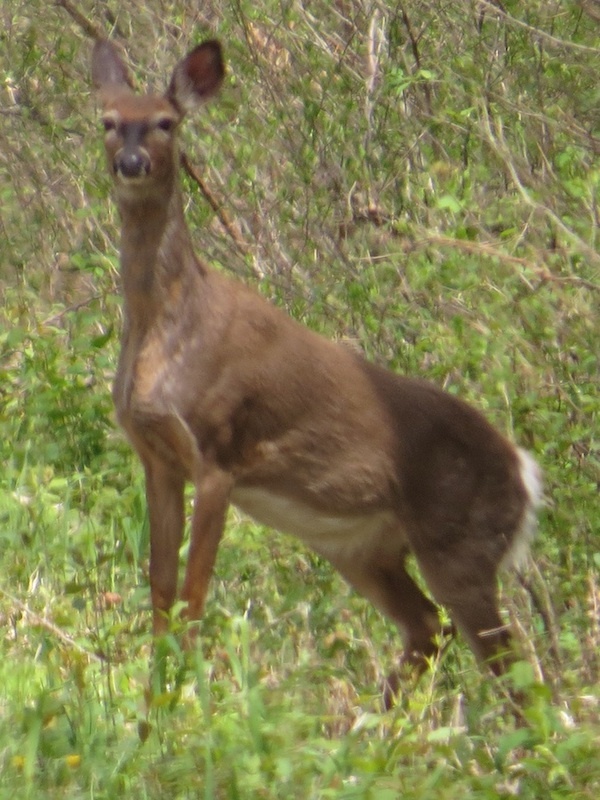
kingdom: Animalia
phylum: Chordata
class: Mammalia
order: Artiodactyla
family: Cervidae
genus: Odocoileus
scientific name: Odocoileus virginianus
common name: White-tailed deer
